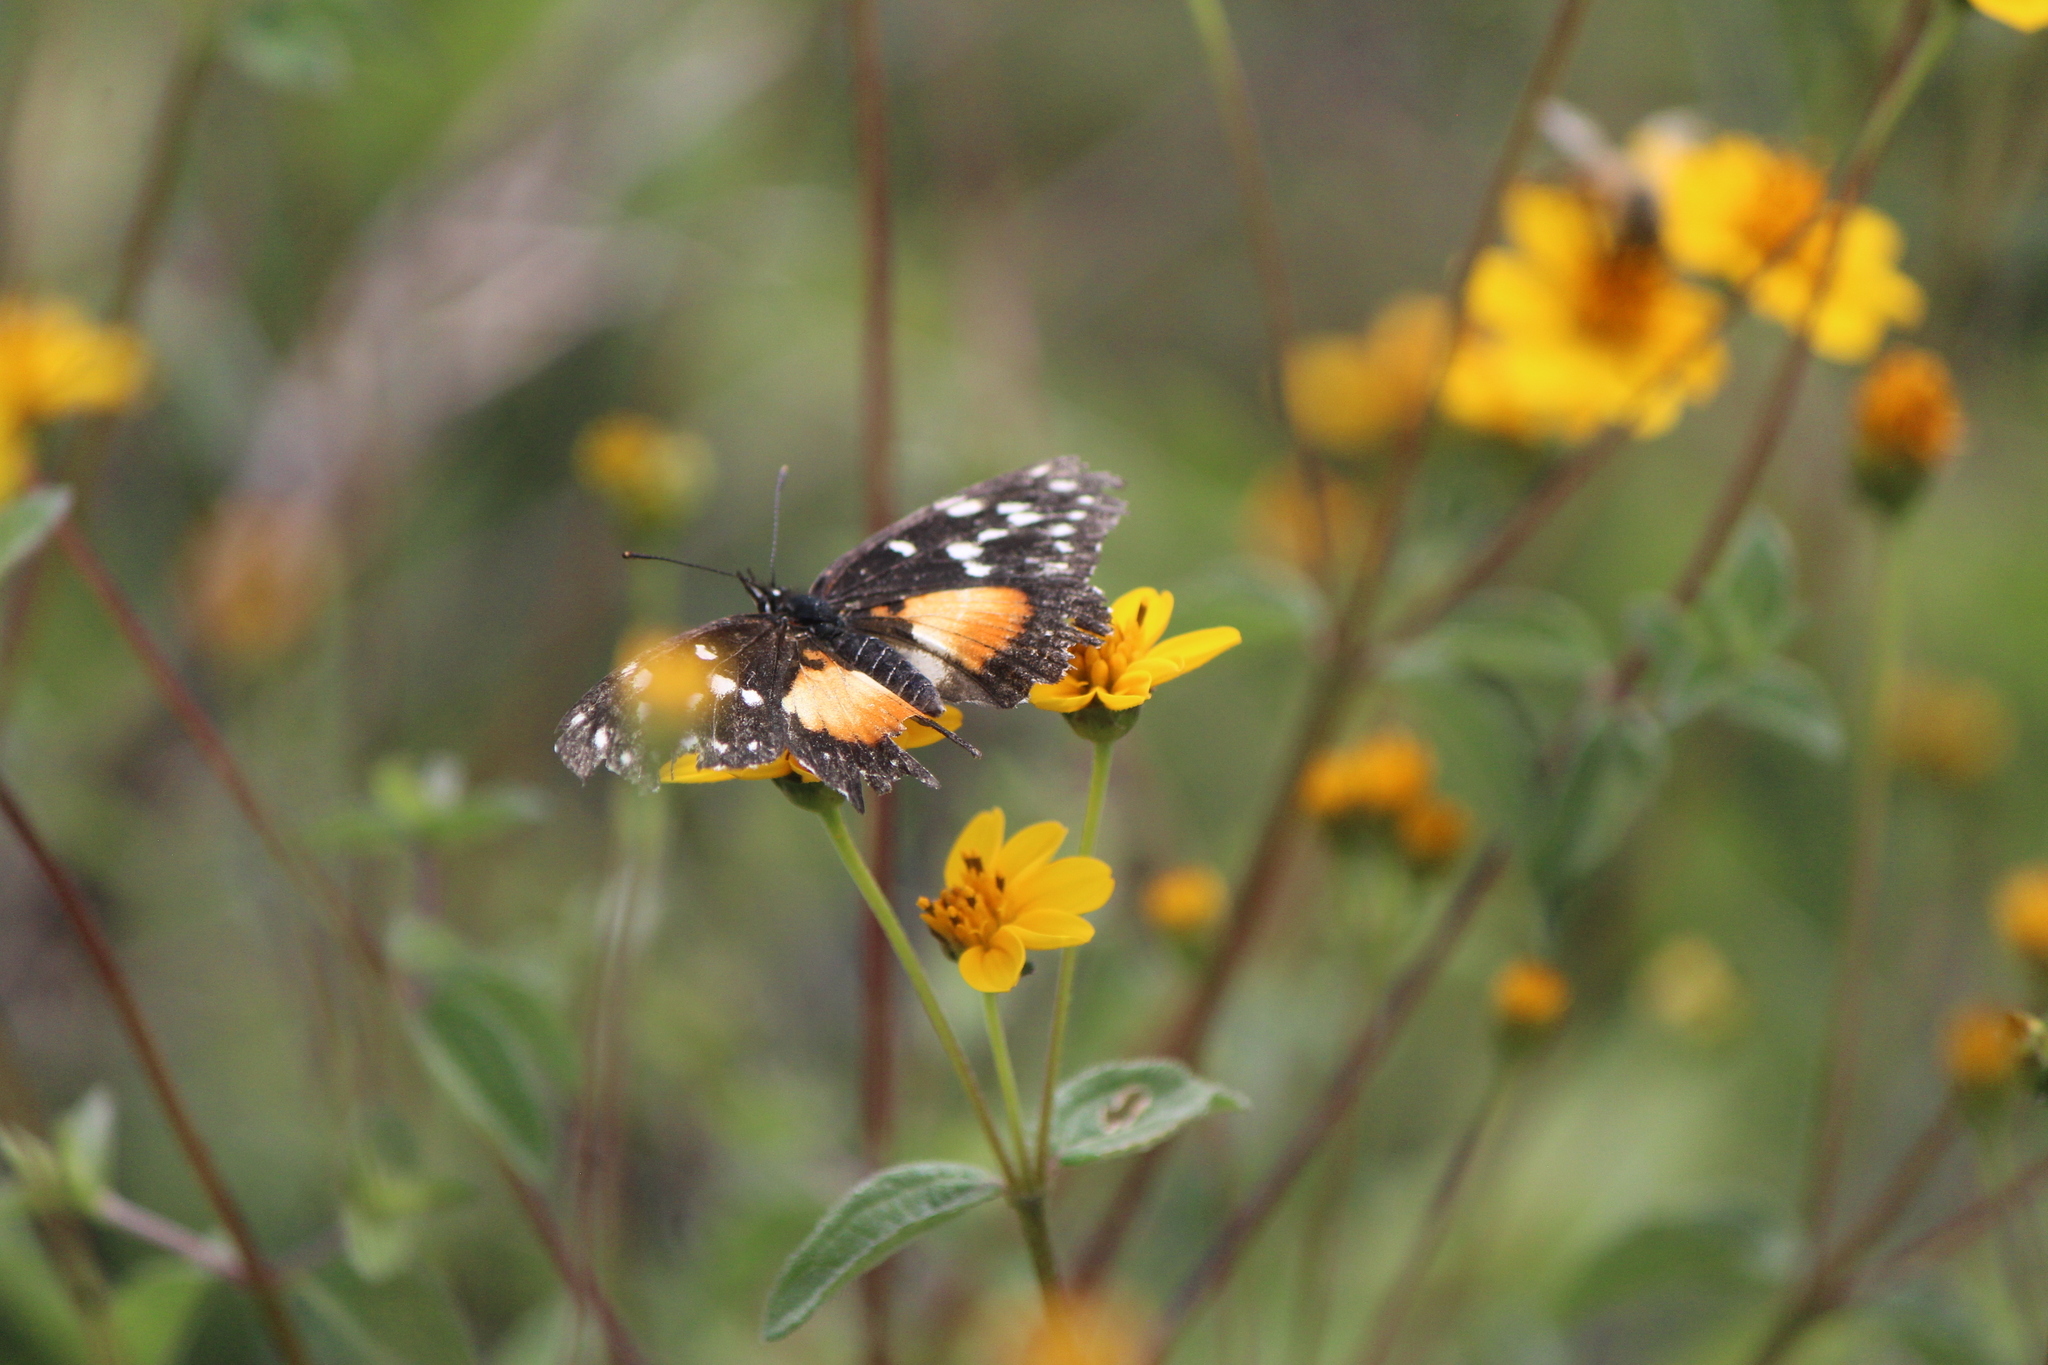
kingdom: Animalia
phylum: Arthropoda
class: Insecta
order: Lepidoptera
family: Nymphalidae
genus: Chlosyne
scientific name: Chlosyne rosita
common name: Rosita patch
